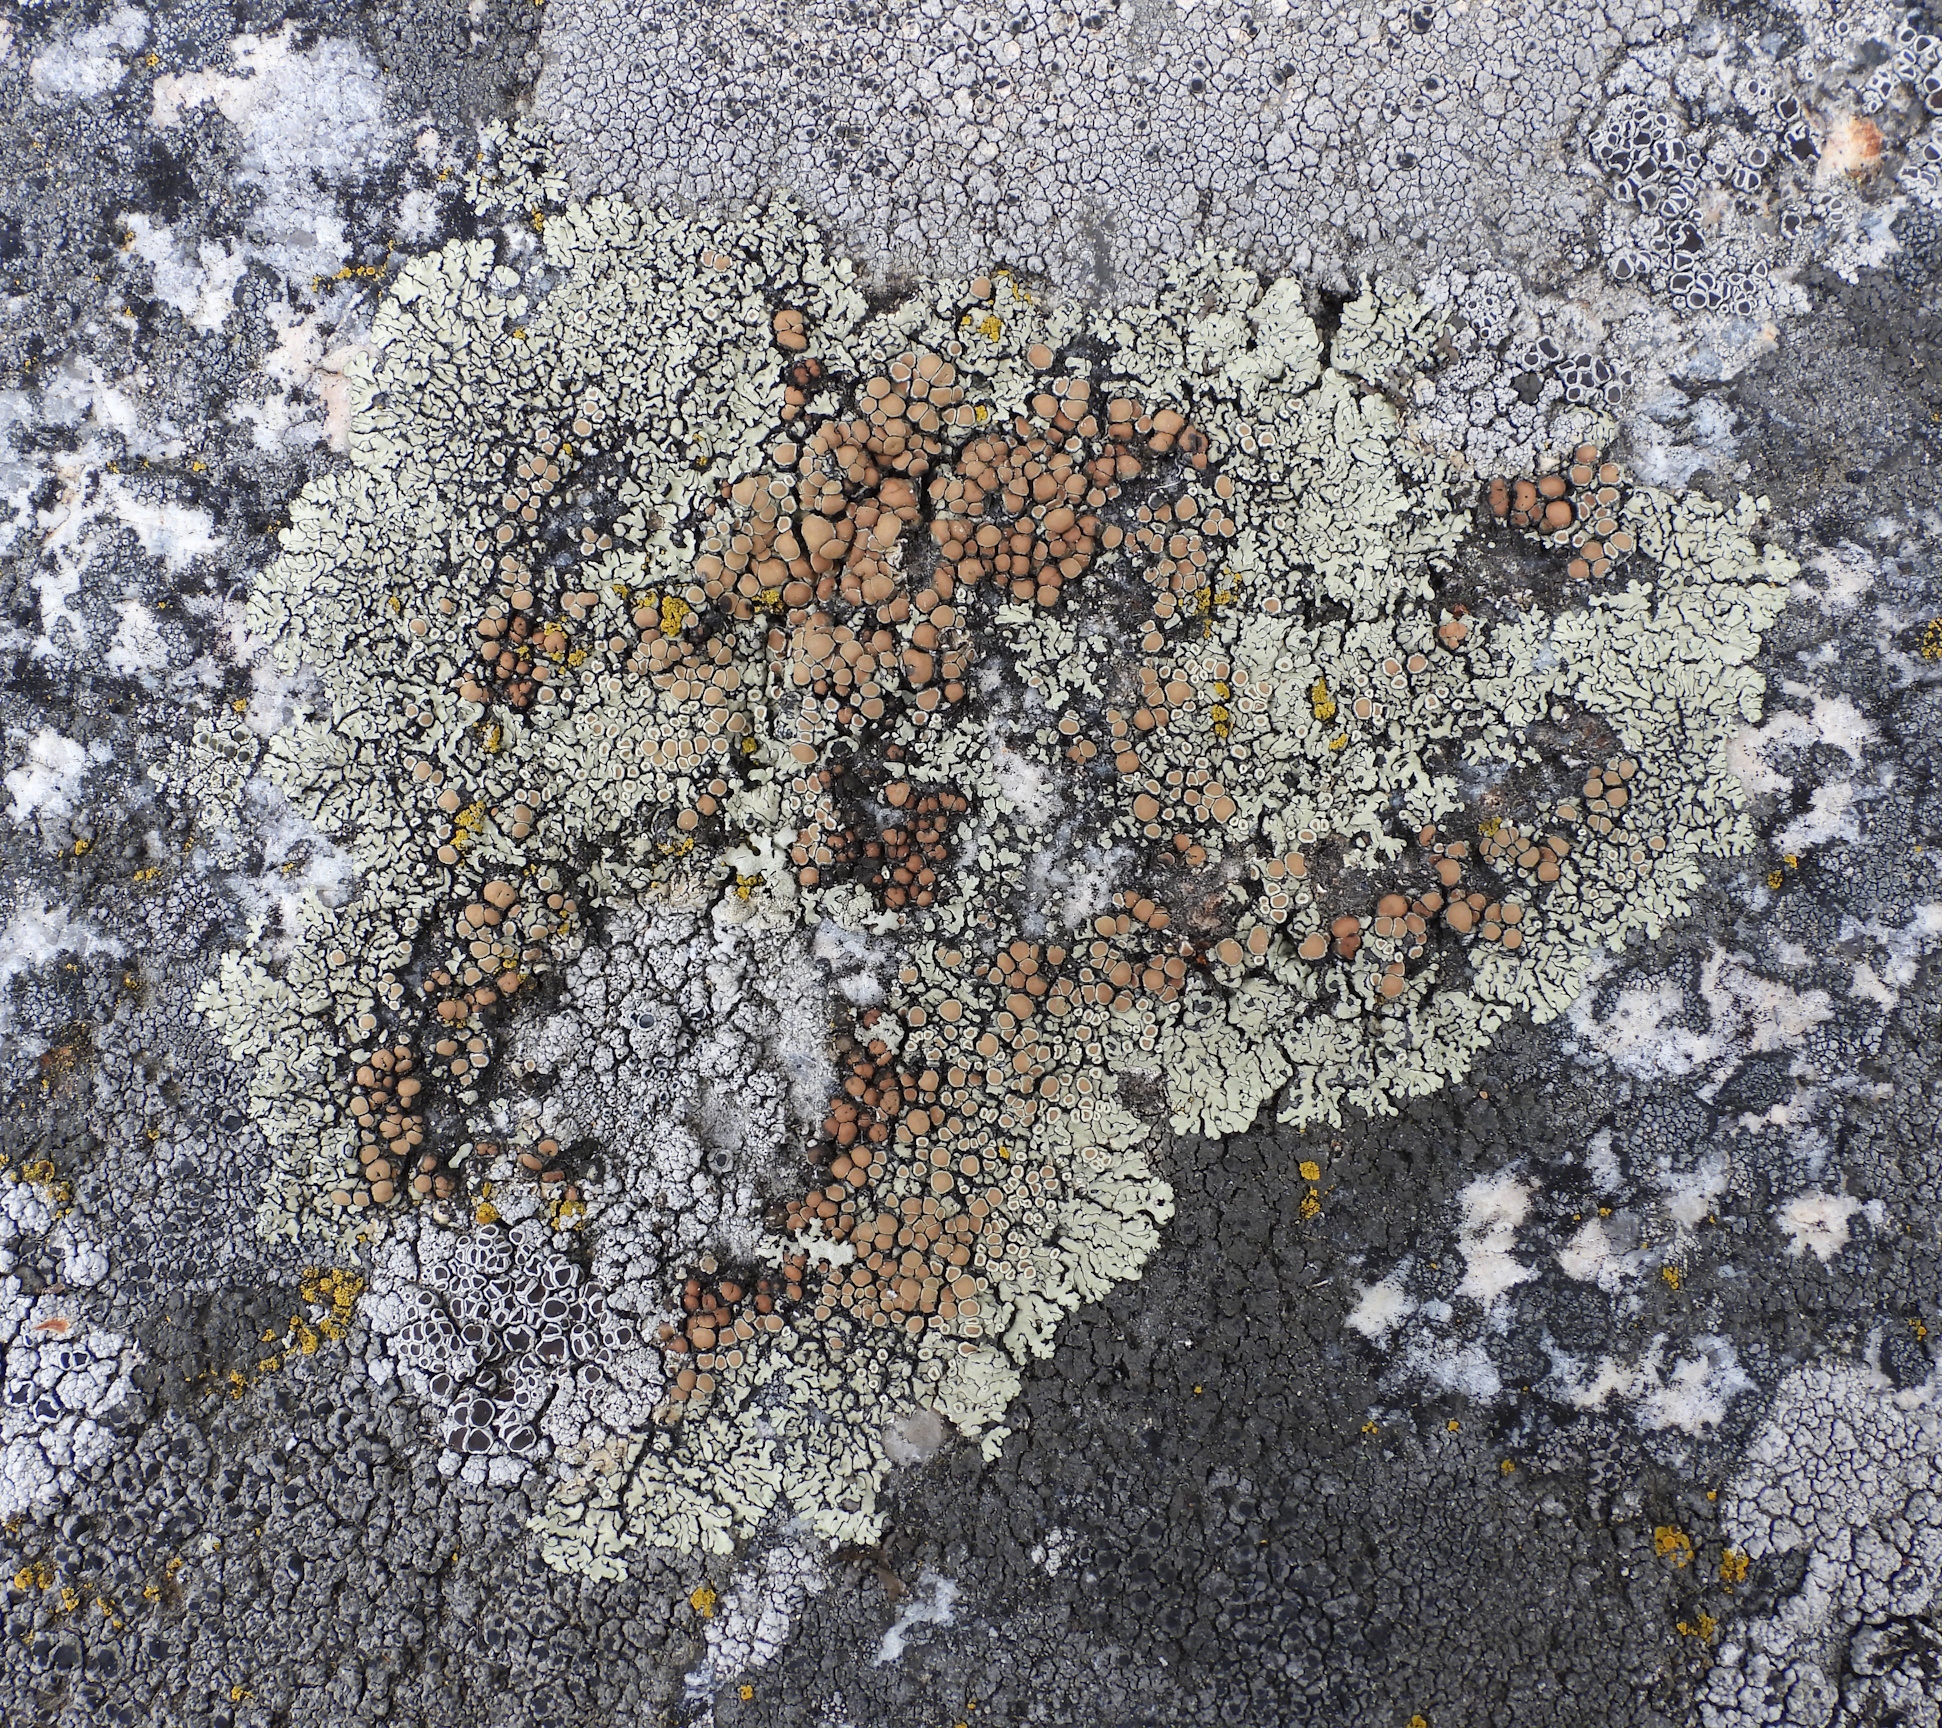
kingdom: Fungi
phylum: Ascomycota
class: Lecanoromycetes
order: Lecanorales
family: Lecanoraceae
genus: Protoparmeliopsis
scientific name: Protoparmeliopsis muralis
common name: Stonewall rim lichen
